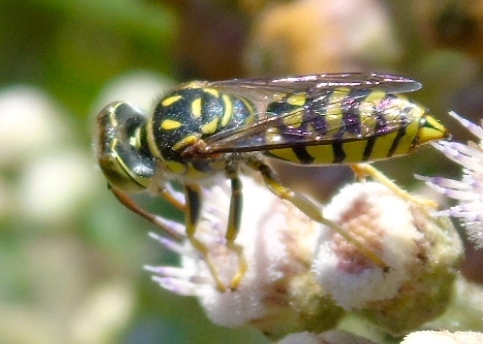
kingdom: Animalia
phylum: Arthropoda
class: Insecta
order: Hymenoptera
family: Crabronidae
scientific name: Crabronidae
